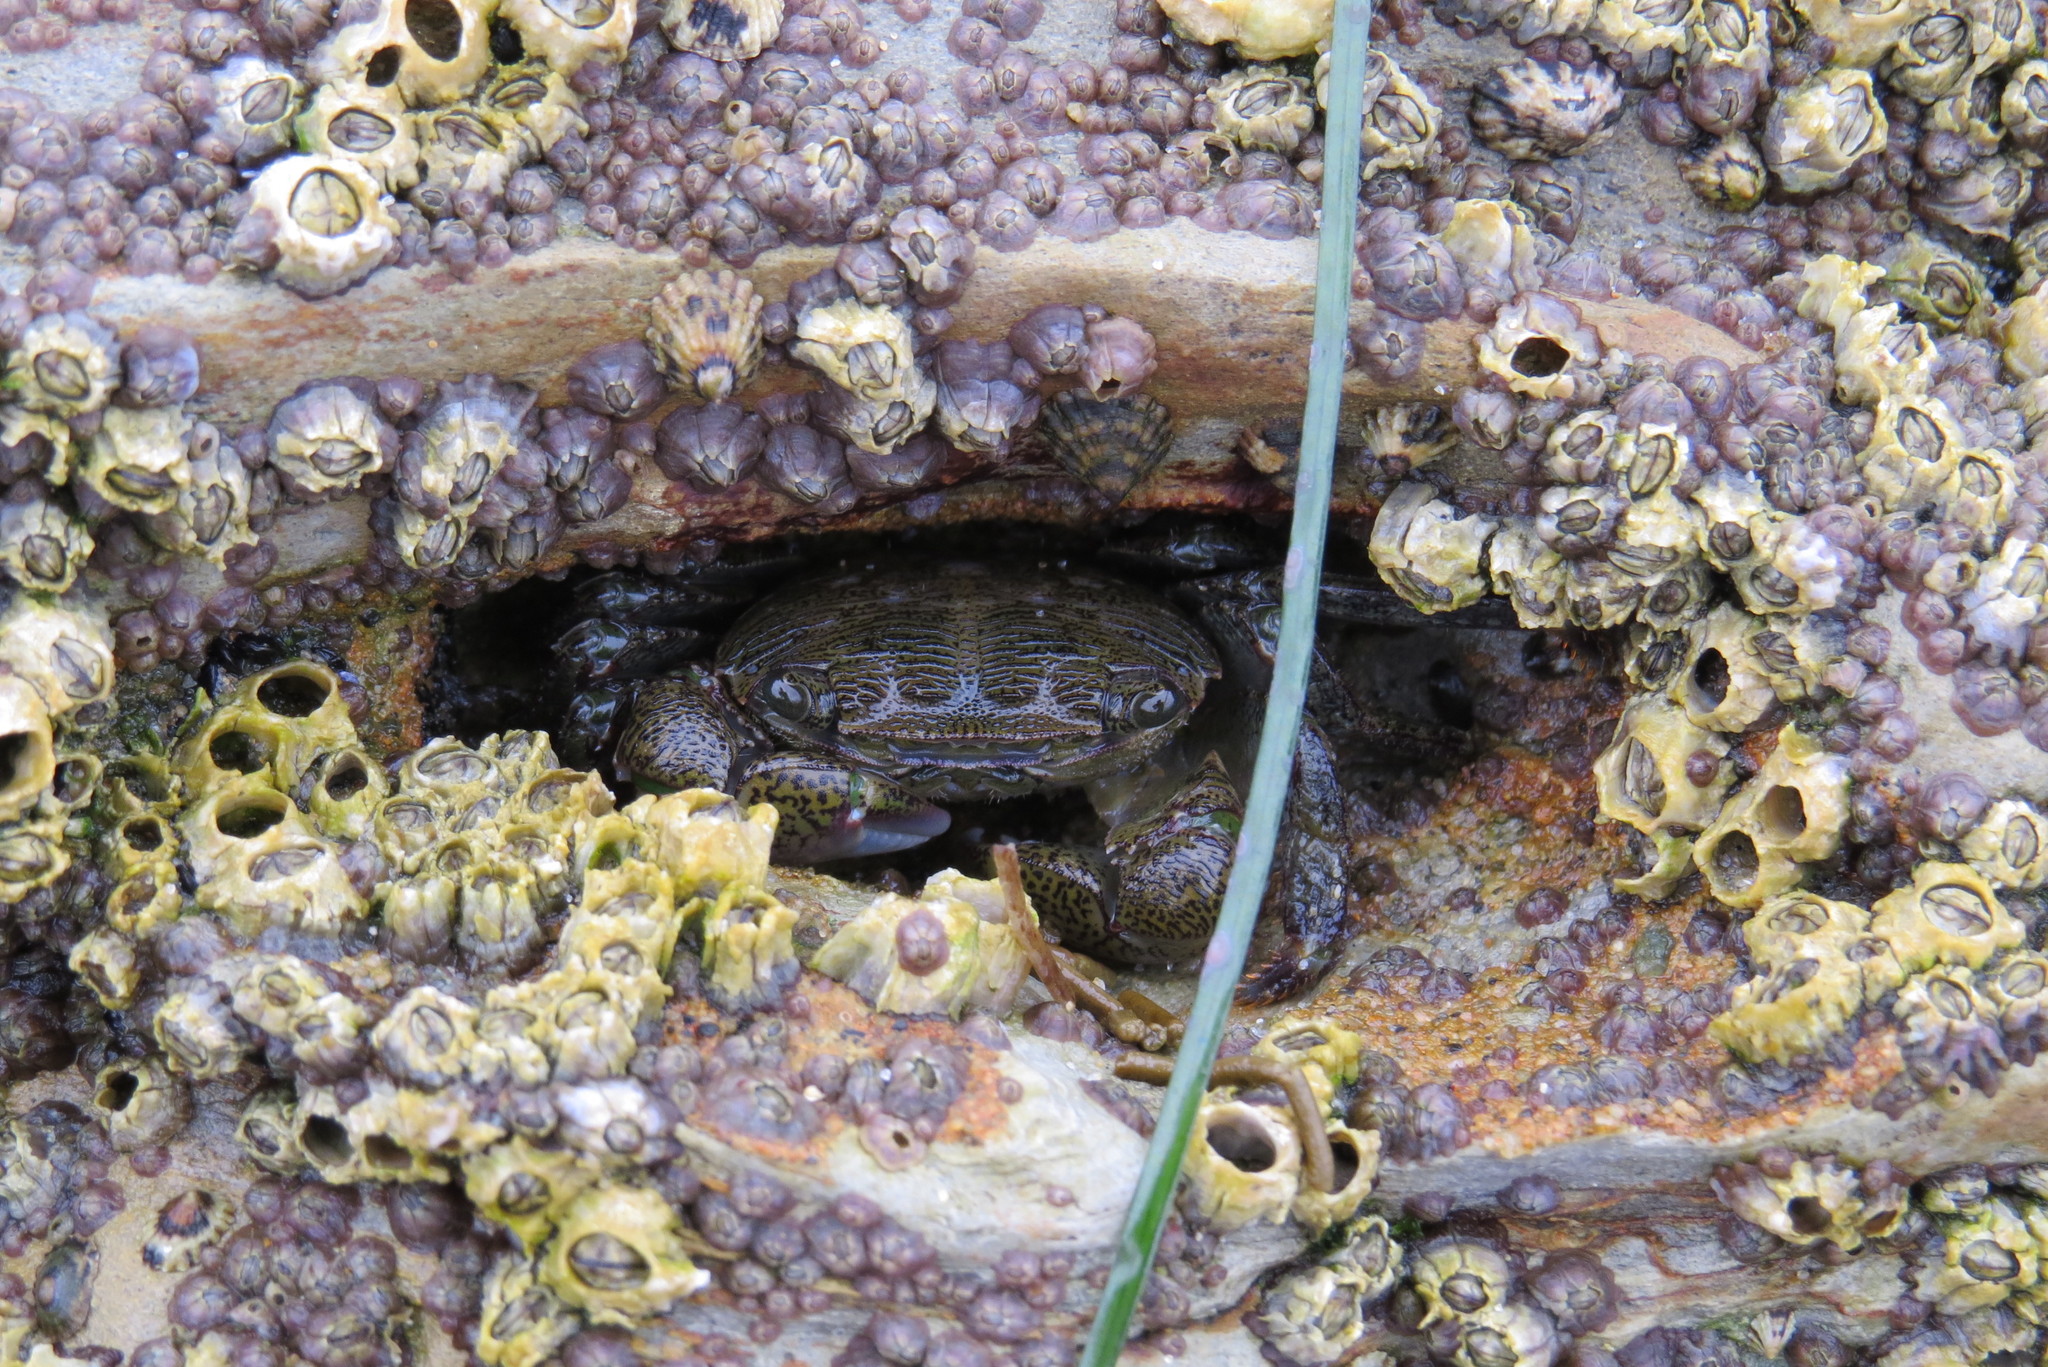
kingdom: Animalia
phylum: Arthropoda
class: Malacostraca
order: Decapoda
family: Grapsidae
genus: Pachygrapsus
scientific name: Pachygrapsus crassipes
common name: Striped shore crab
